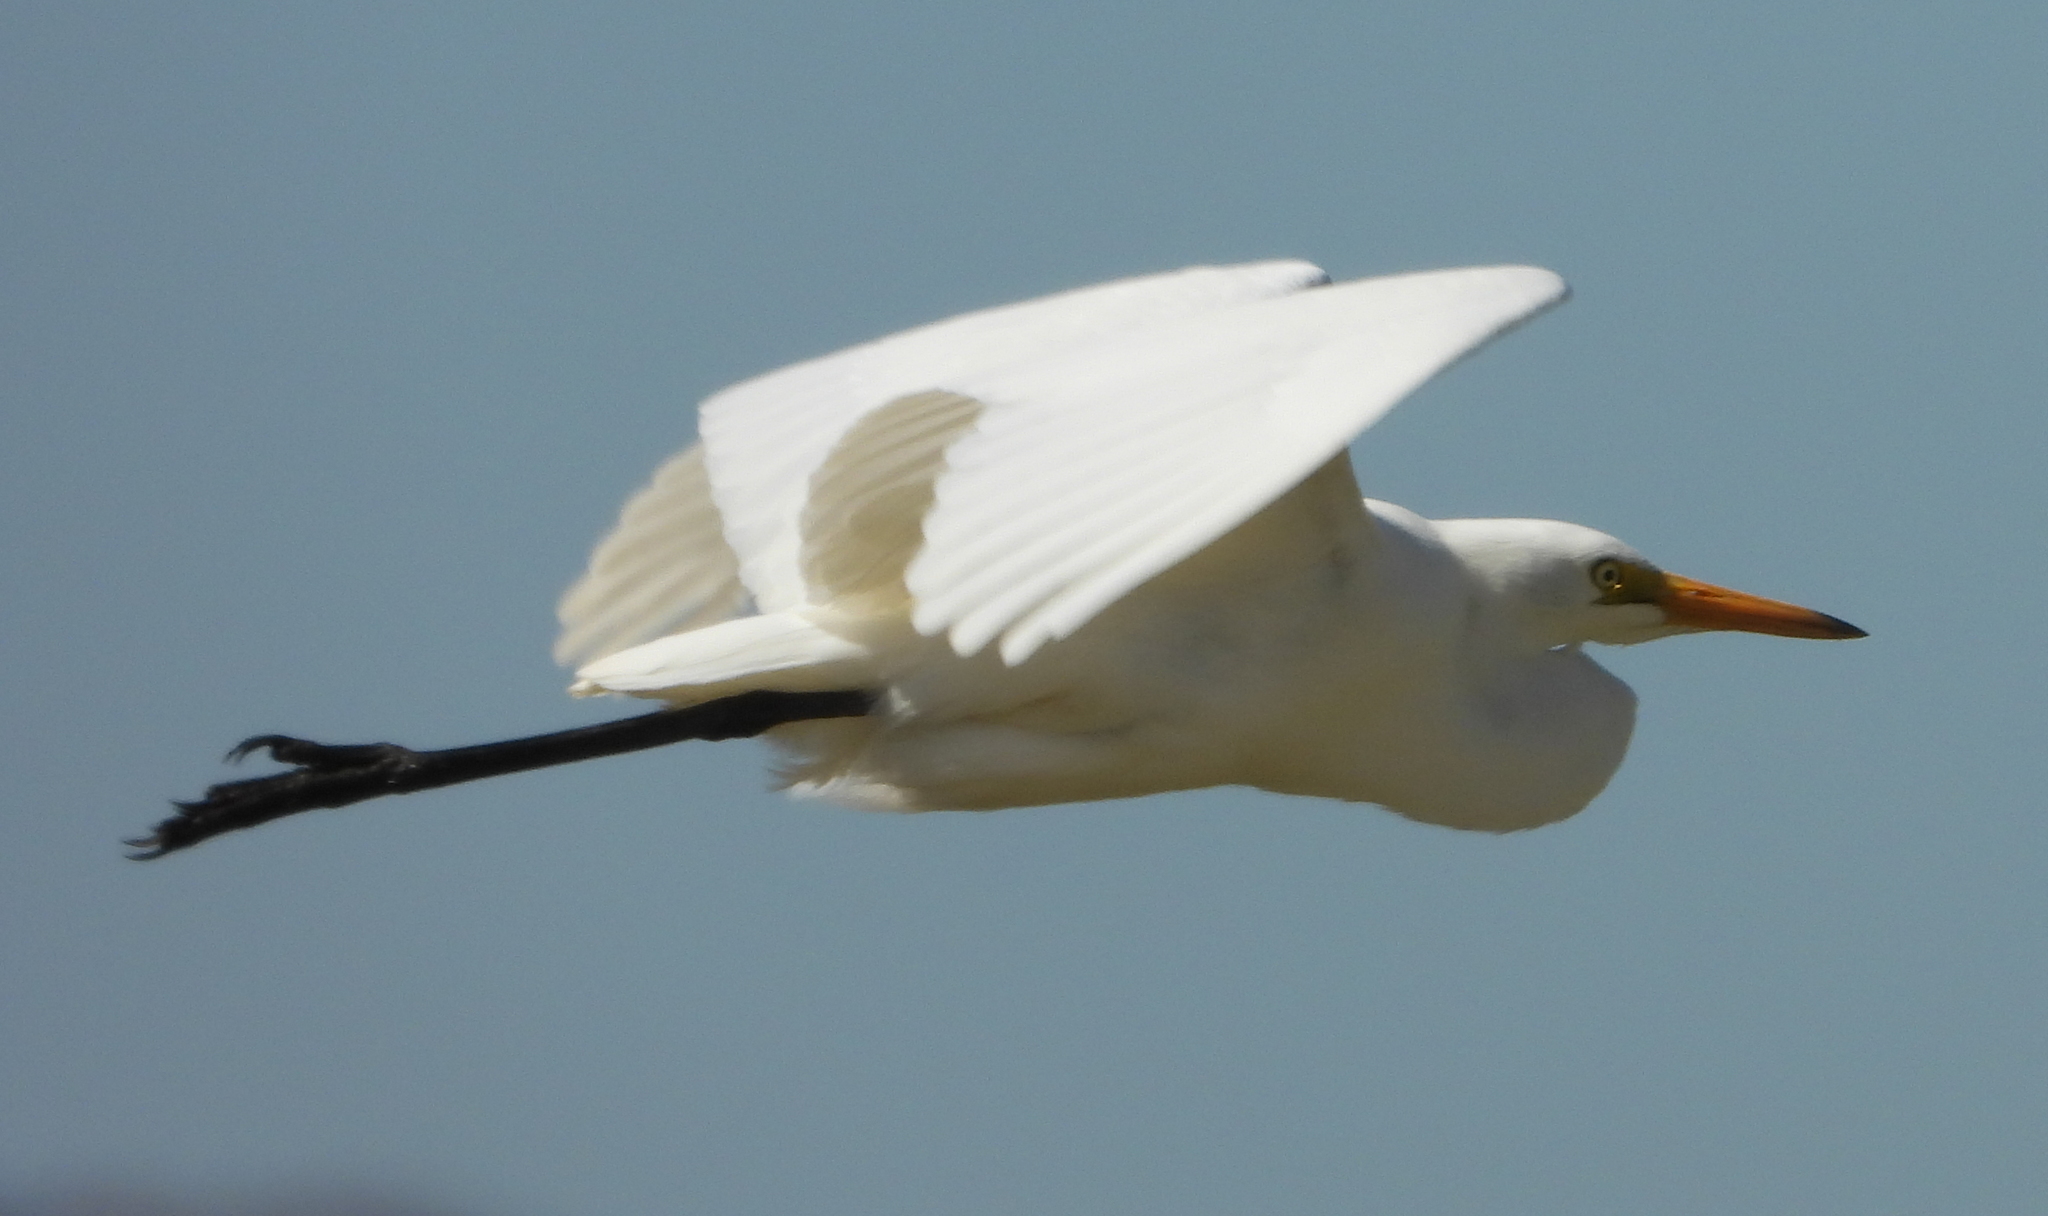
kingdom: Animalia
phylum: Chordata
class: Aves
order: Pelecaniformes
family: Ardeidae
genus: Ardea
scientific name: Ardea alba
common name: Great egret
